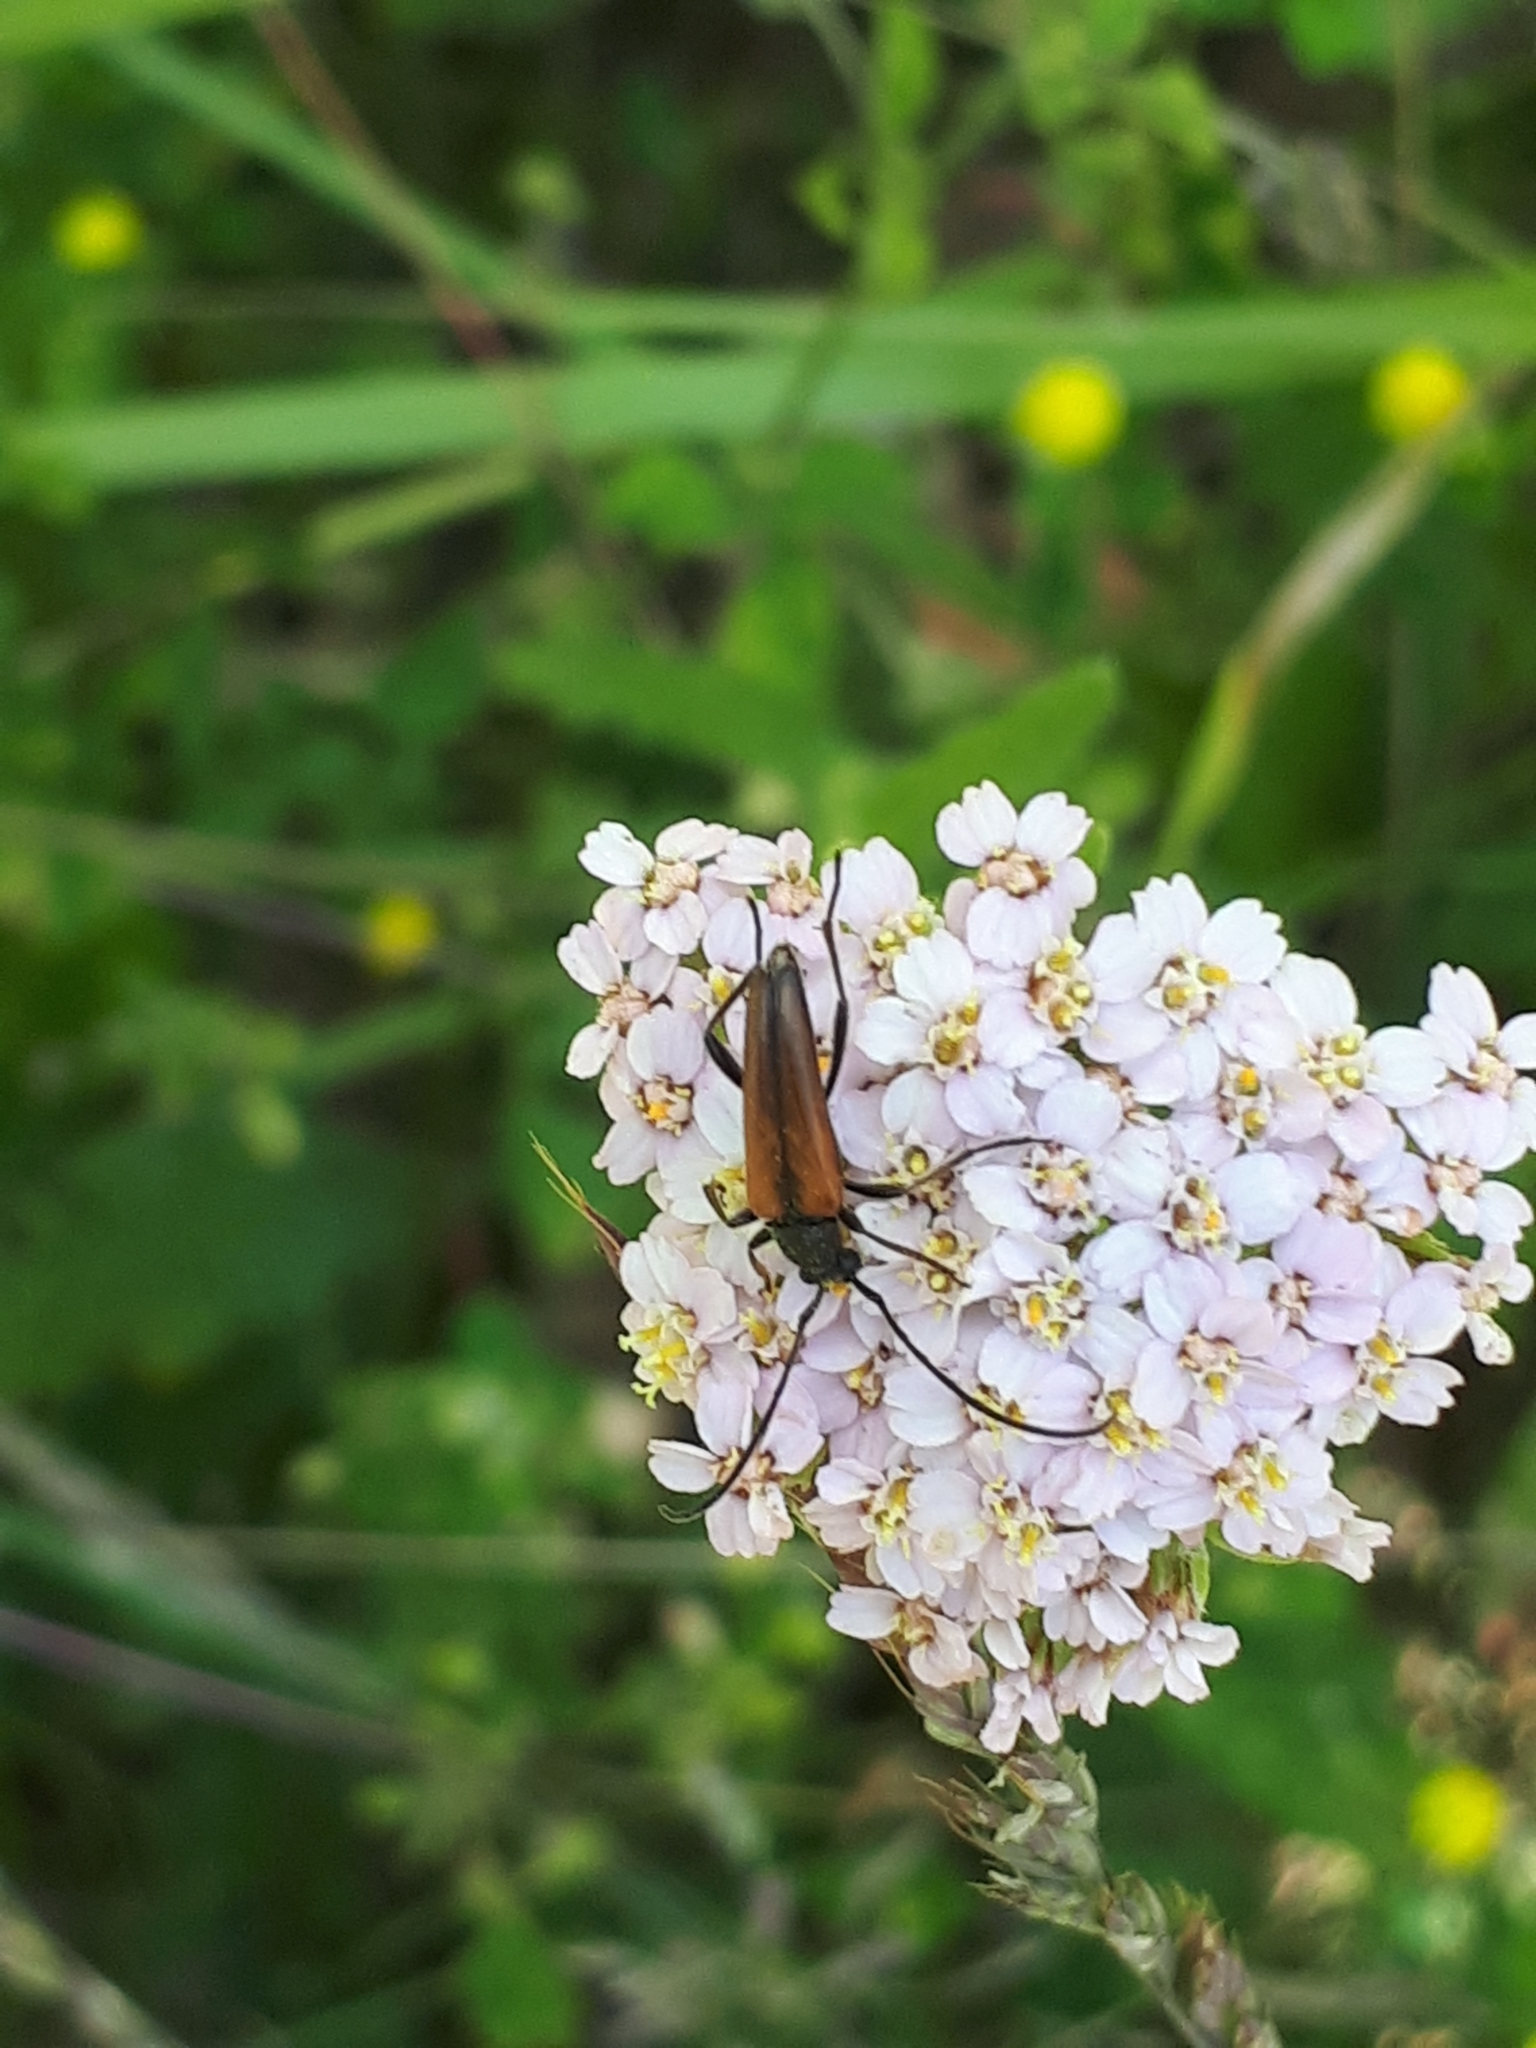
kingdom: Animalia
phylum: Arthropoda
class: Insecta
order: Coleoptera
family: Cerambycidae
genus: Stenurella
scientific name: Stenurella melanura
